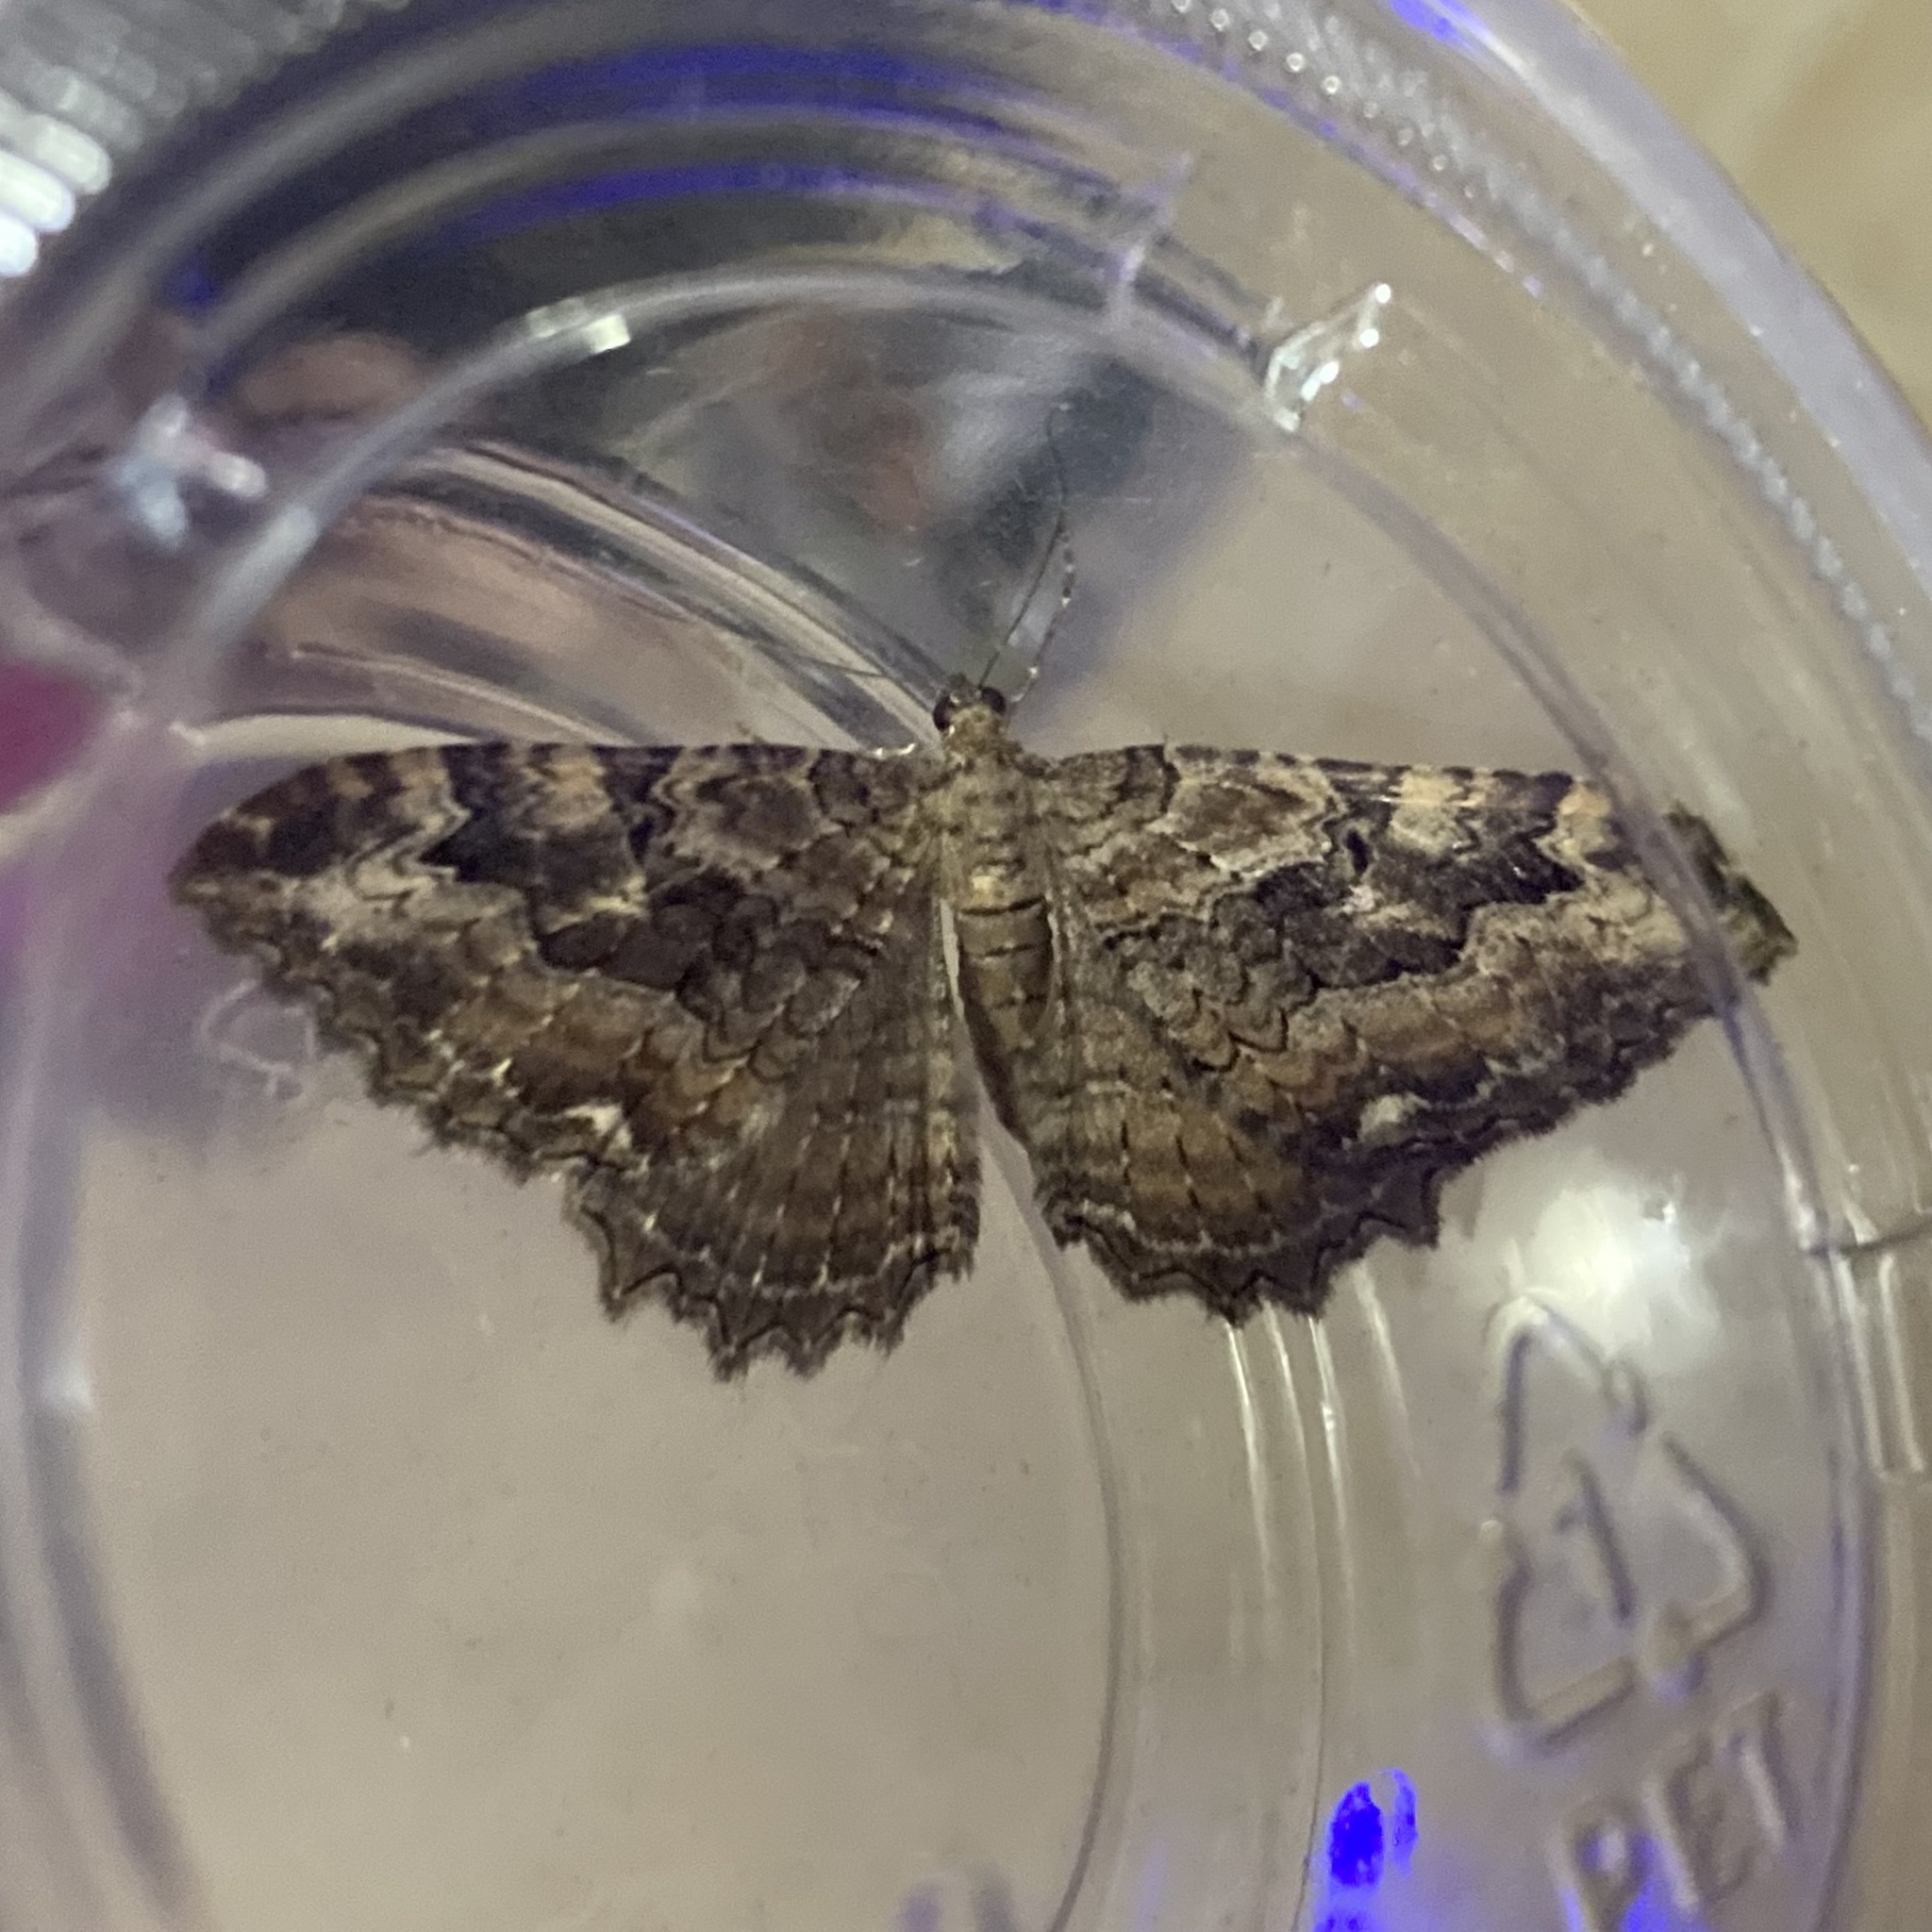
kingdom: Animalia
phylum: Arthropoda
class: Insecta
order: Lepidoptera
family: Geometridae
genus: Rheumaptera
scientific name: Rheumaptera
